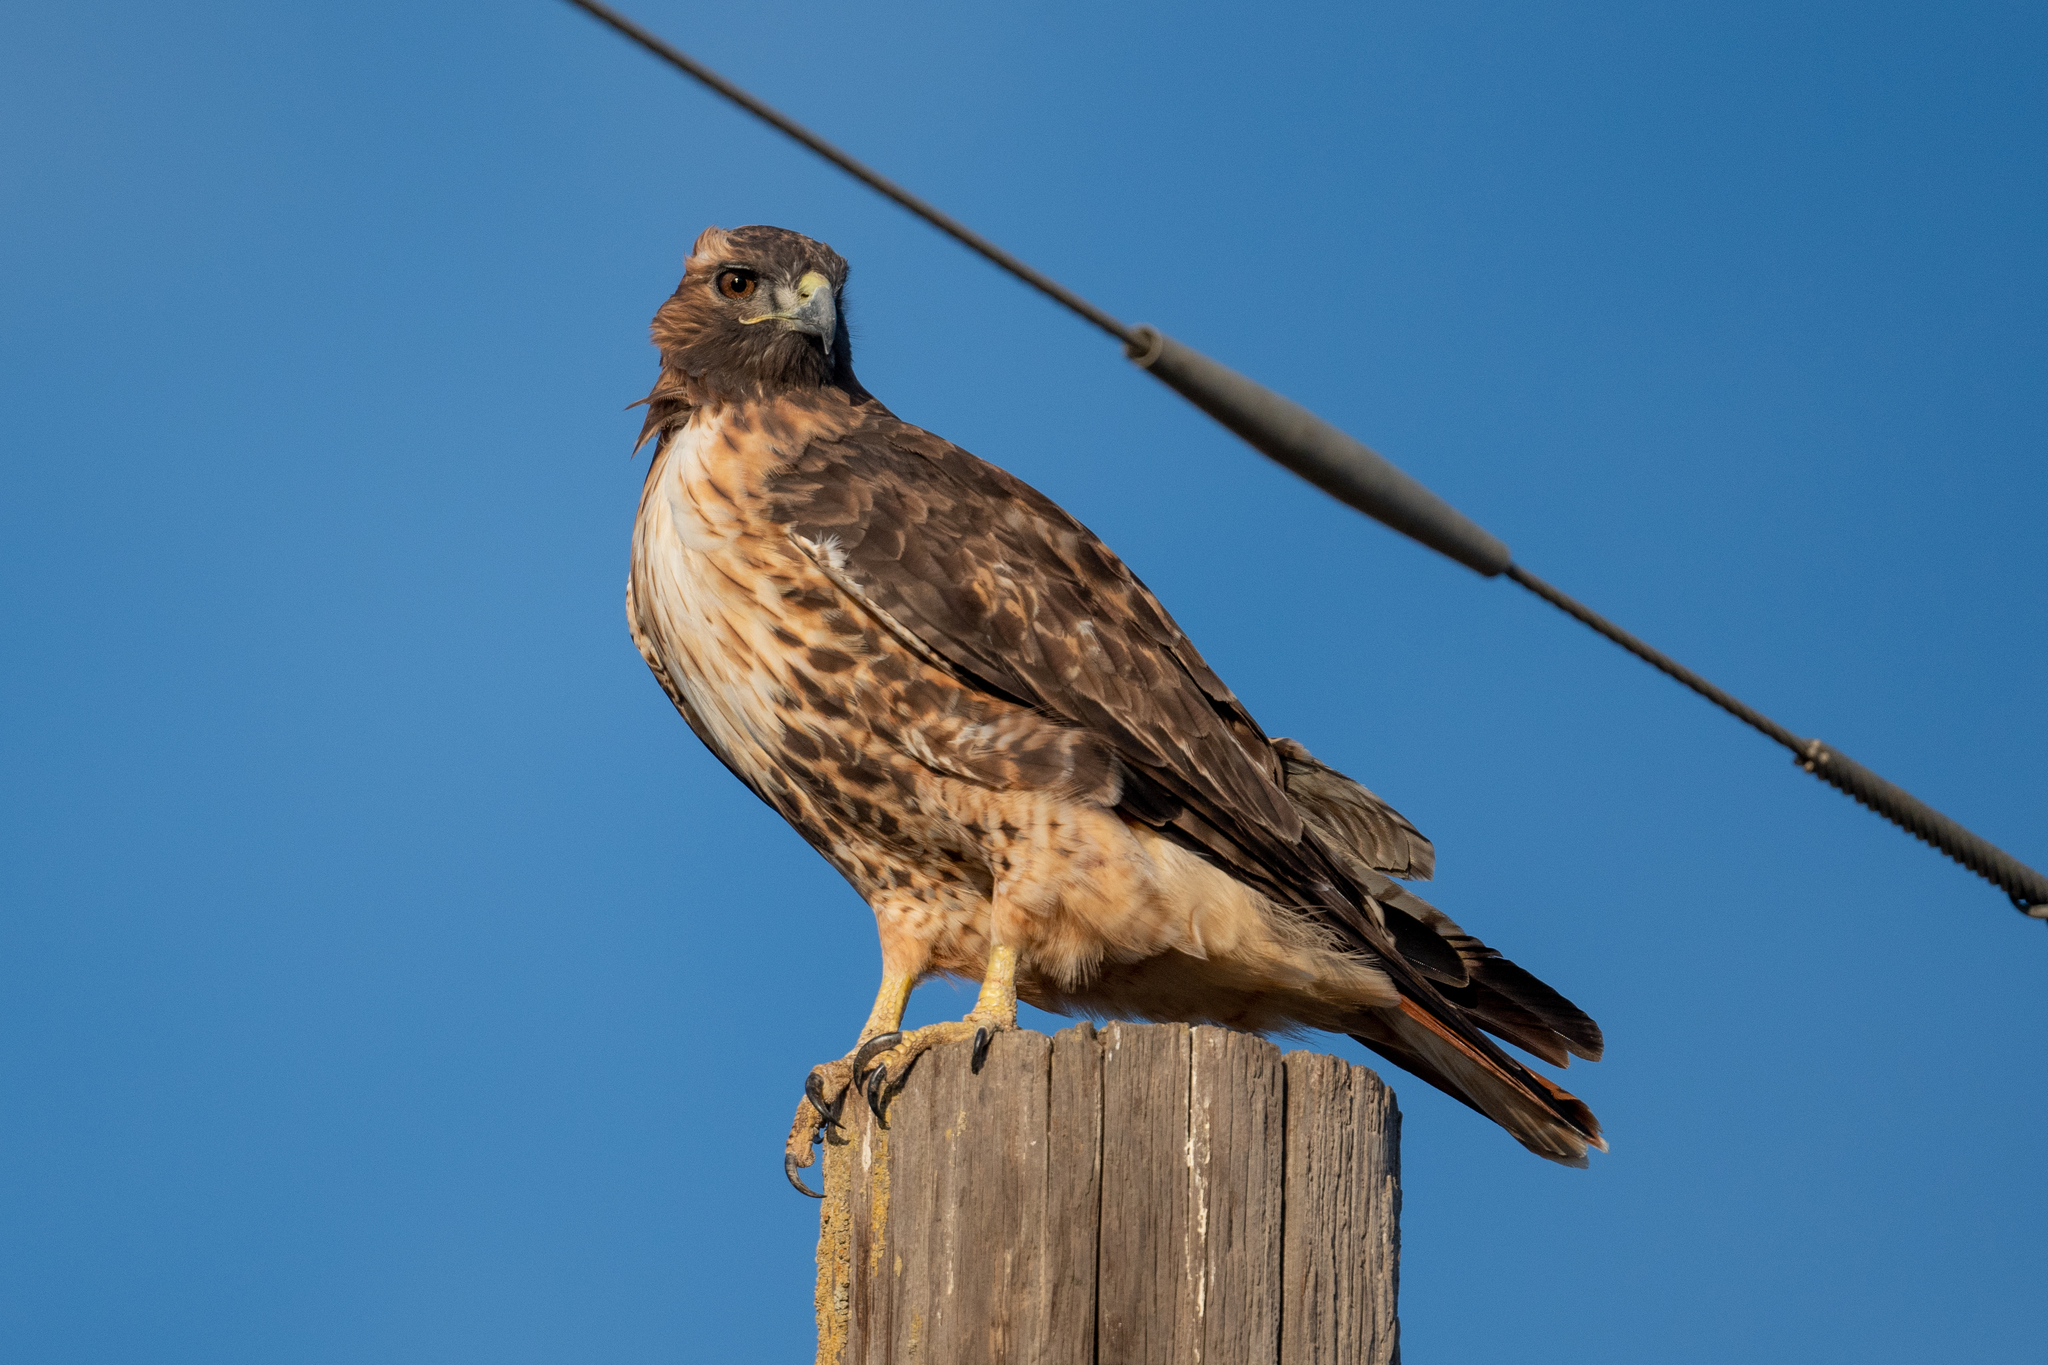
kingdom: Animalia
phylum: Chordata
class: Aves
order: Accipitriformes
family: Accipitridae
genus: Buteo
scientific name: Buteo jamaicensis
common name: Red-tailed hawk
